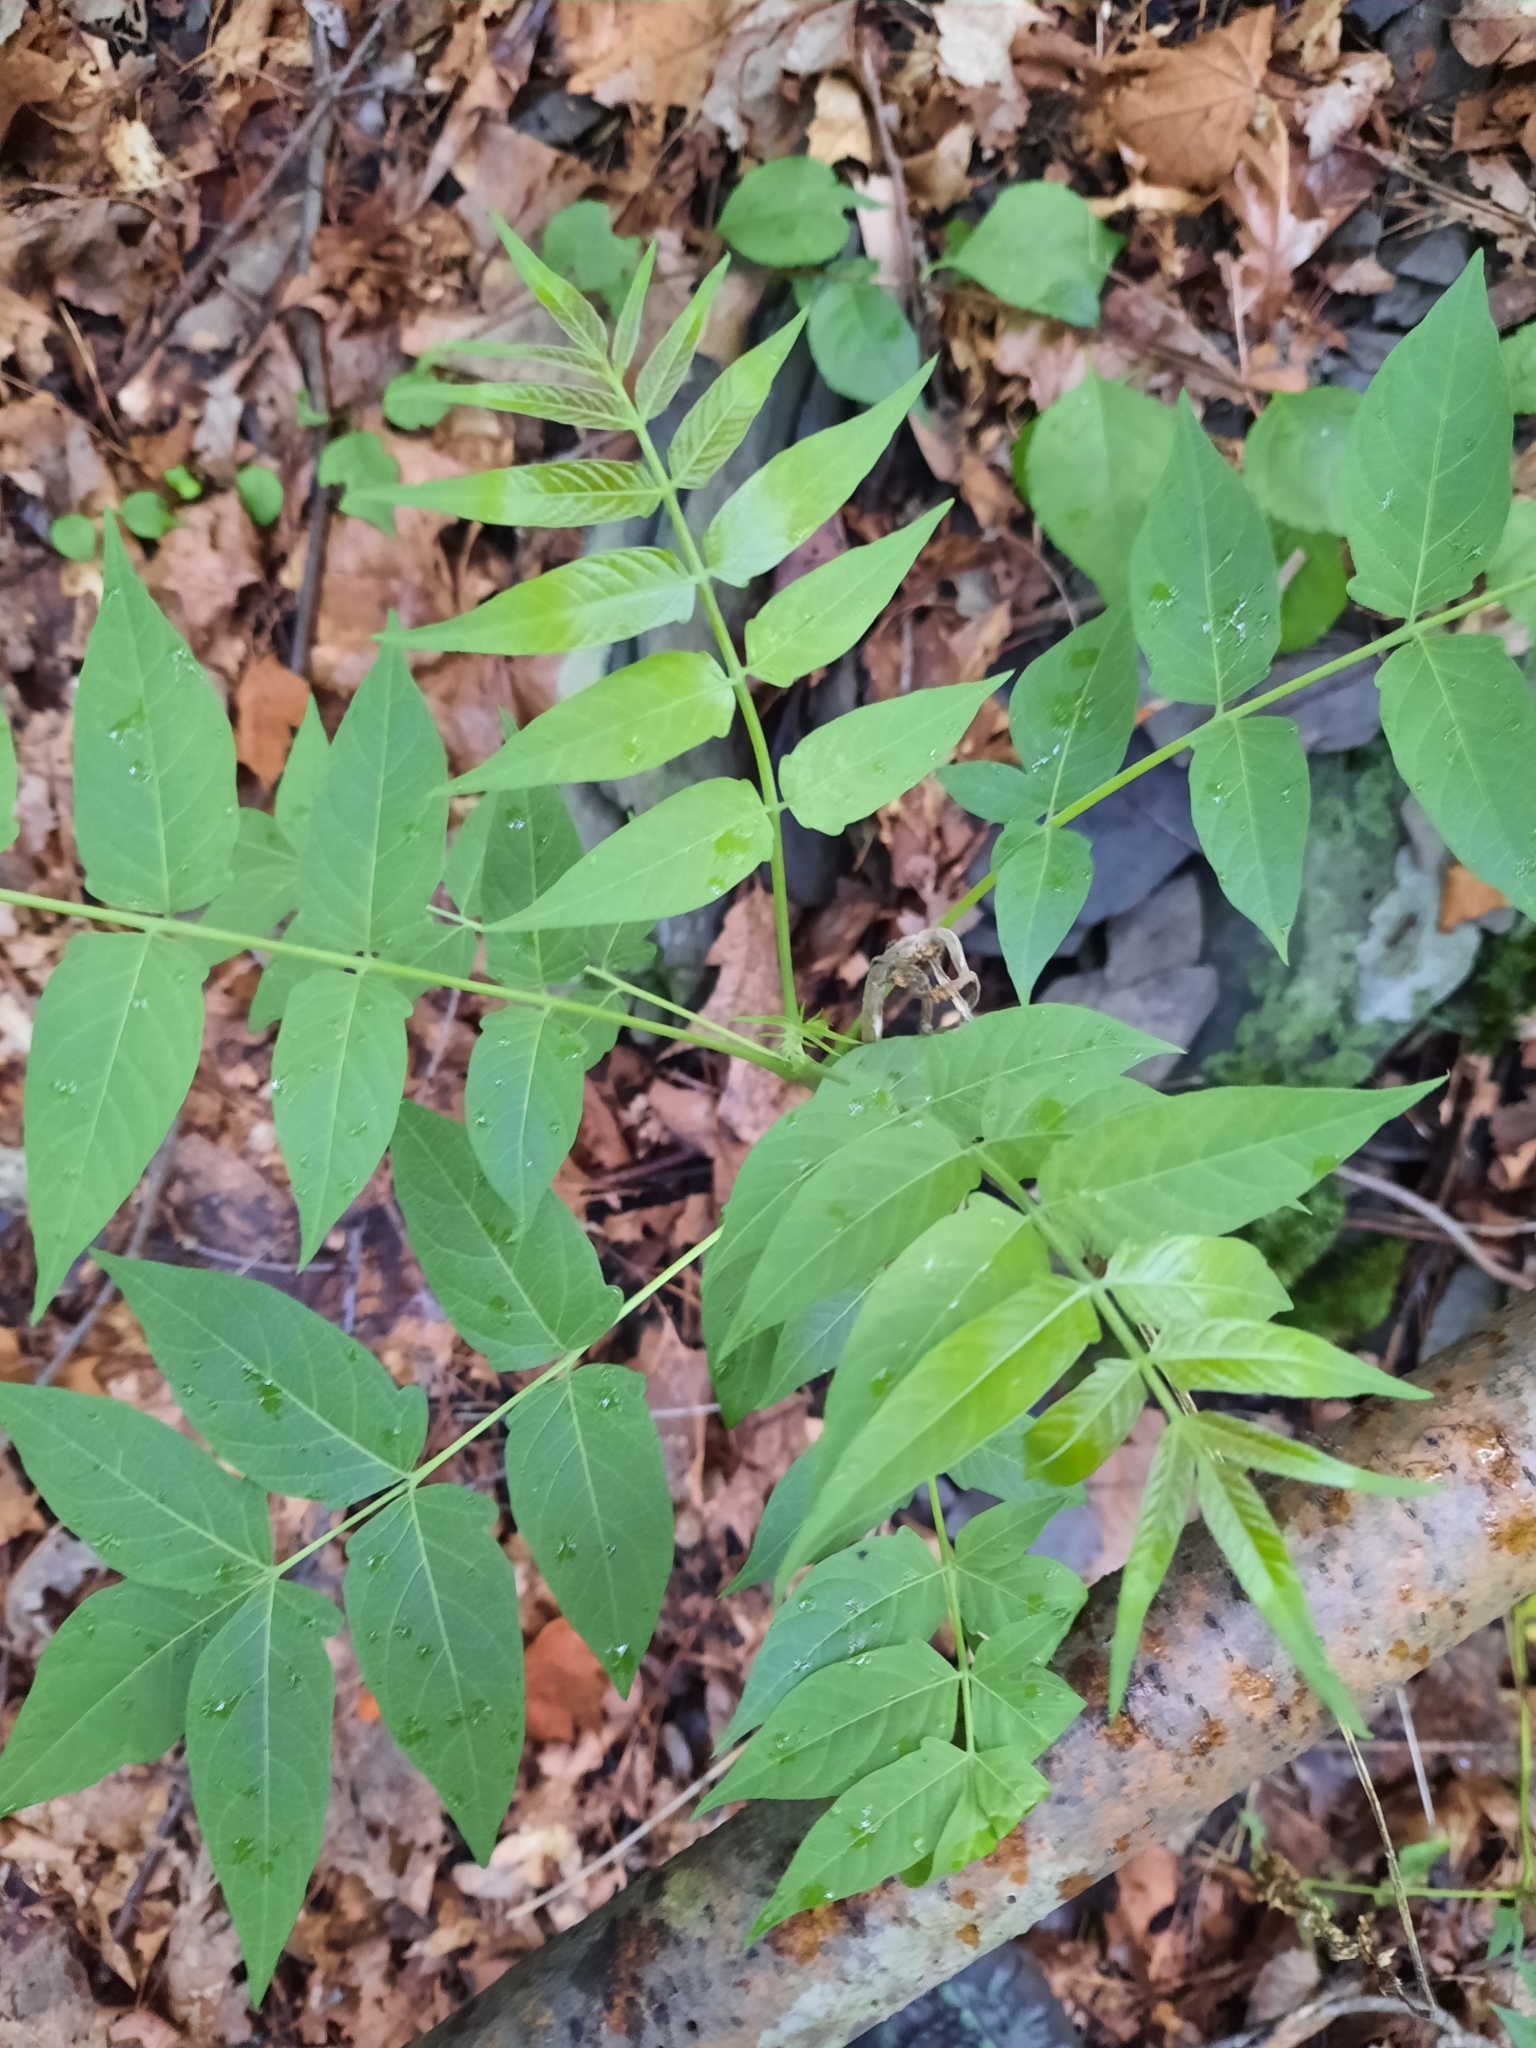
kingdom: Plantae
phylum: Tracheophyta
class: Magnoliopsida
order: Sapindales
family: Simaroubaceae
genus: Ailanthus
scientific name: Ailanthus altissima
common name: Tree-of-heaven
